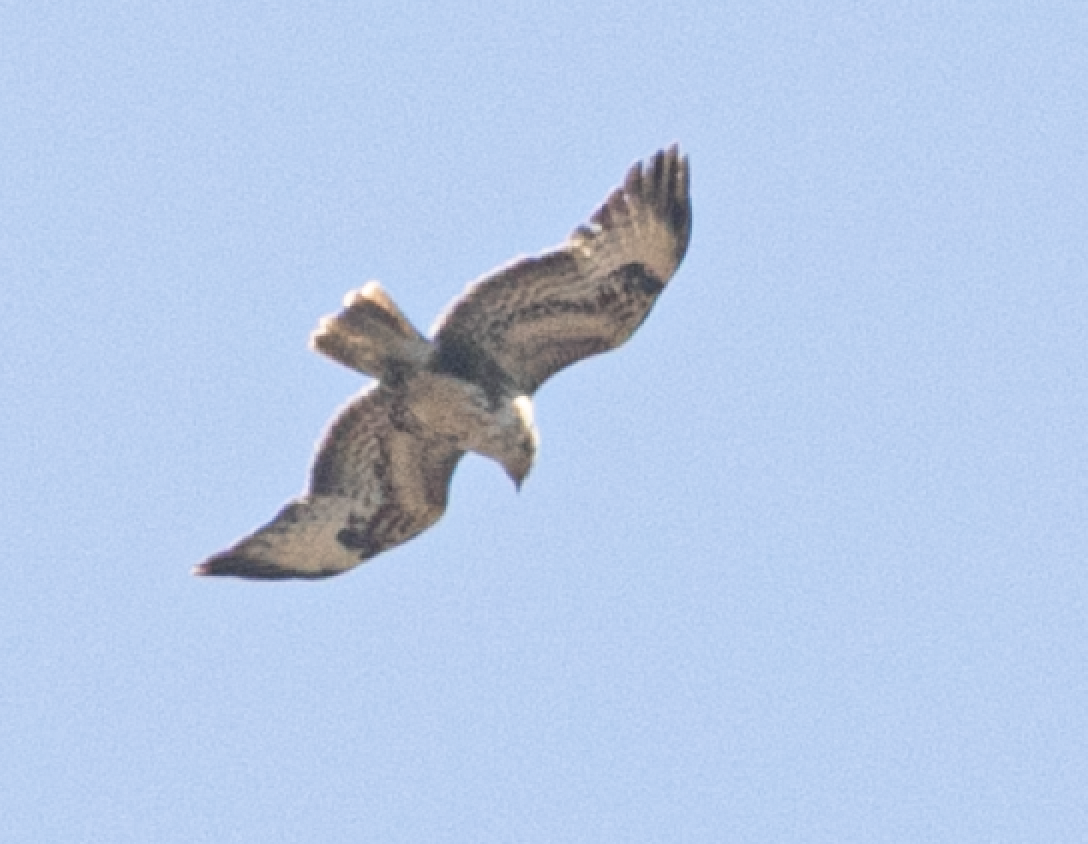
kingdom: Animalia
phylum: Chordata
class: Aves
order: Accipitriformes
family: Accipitridae
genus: Buteo
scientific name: Buteo buteo
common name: Common buzzard
